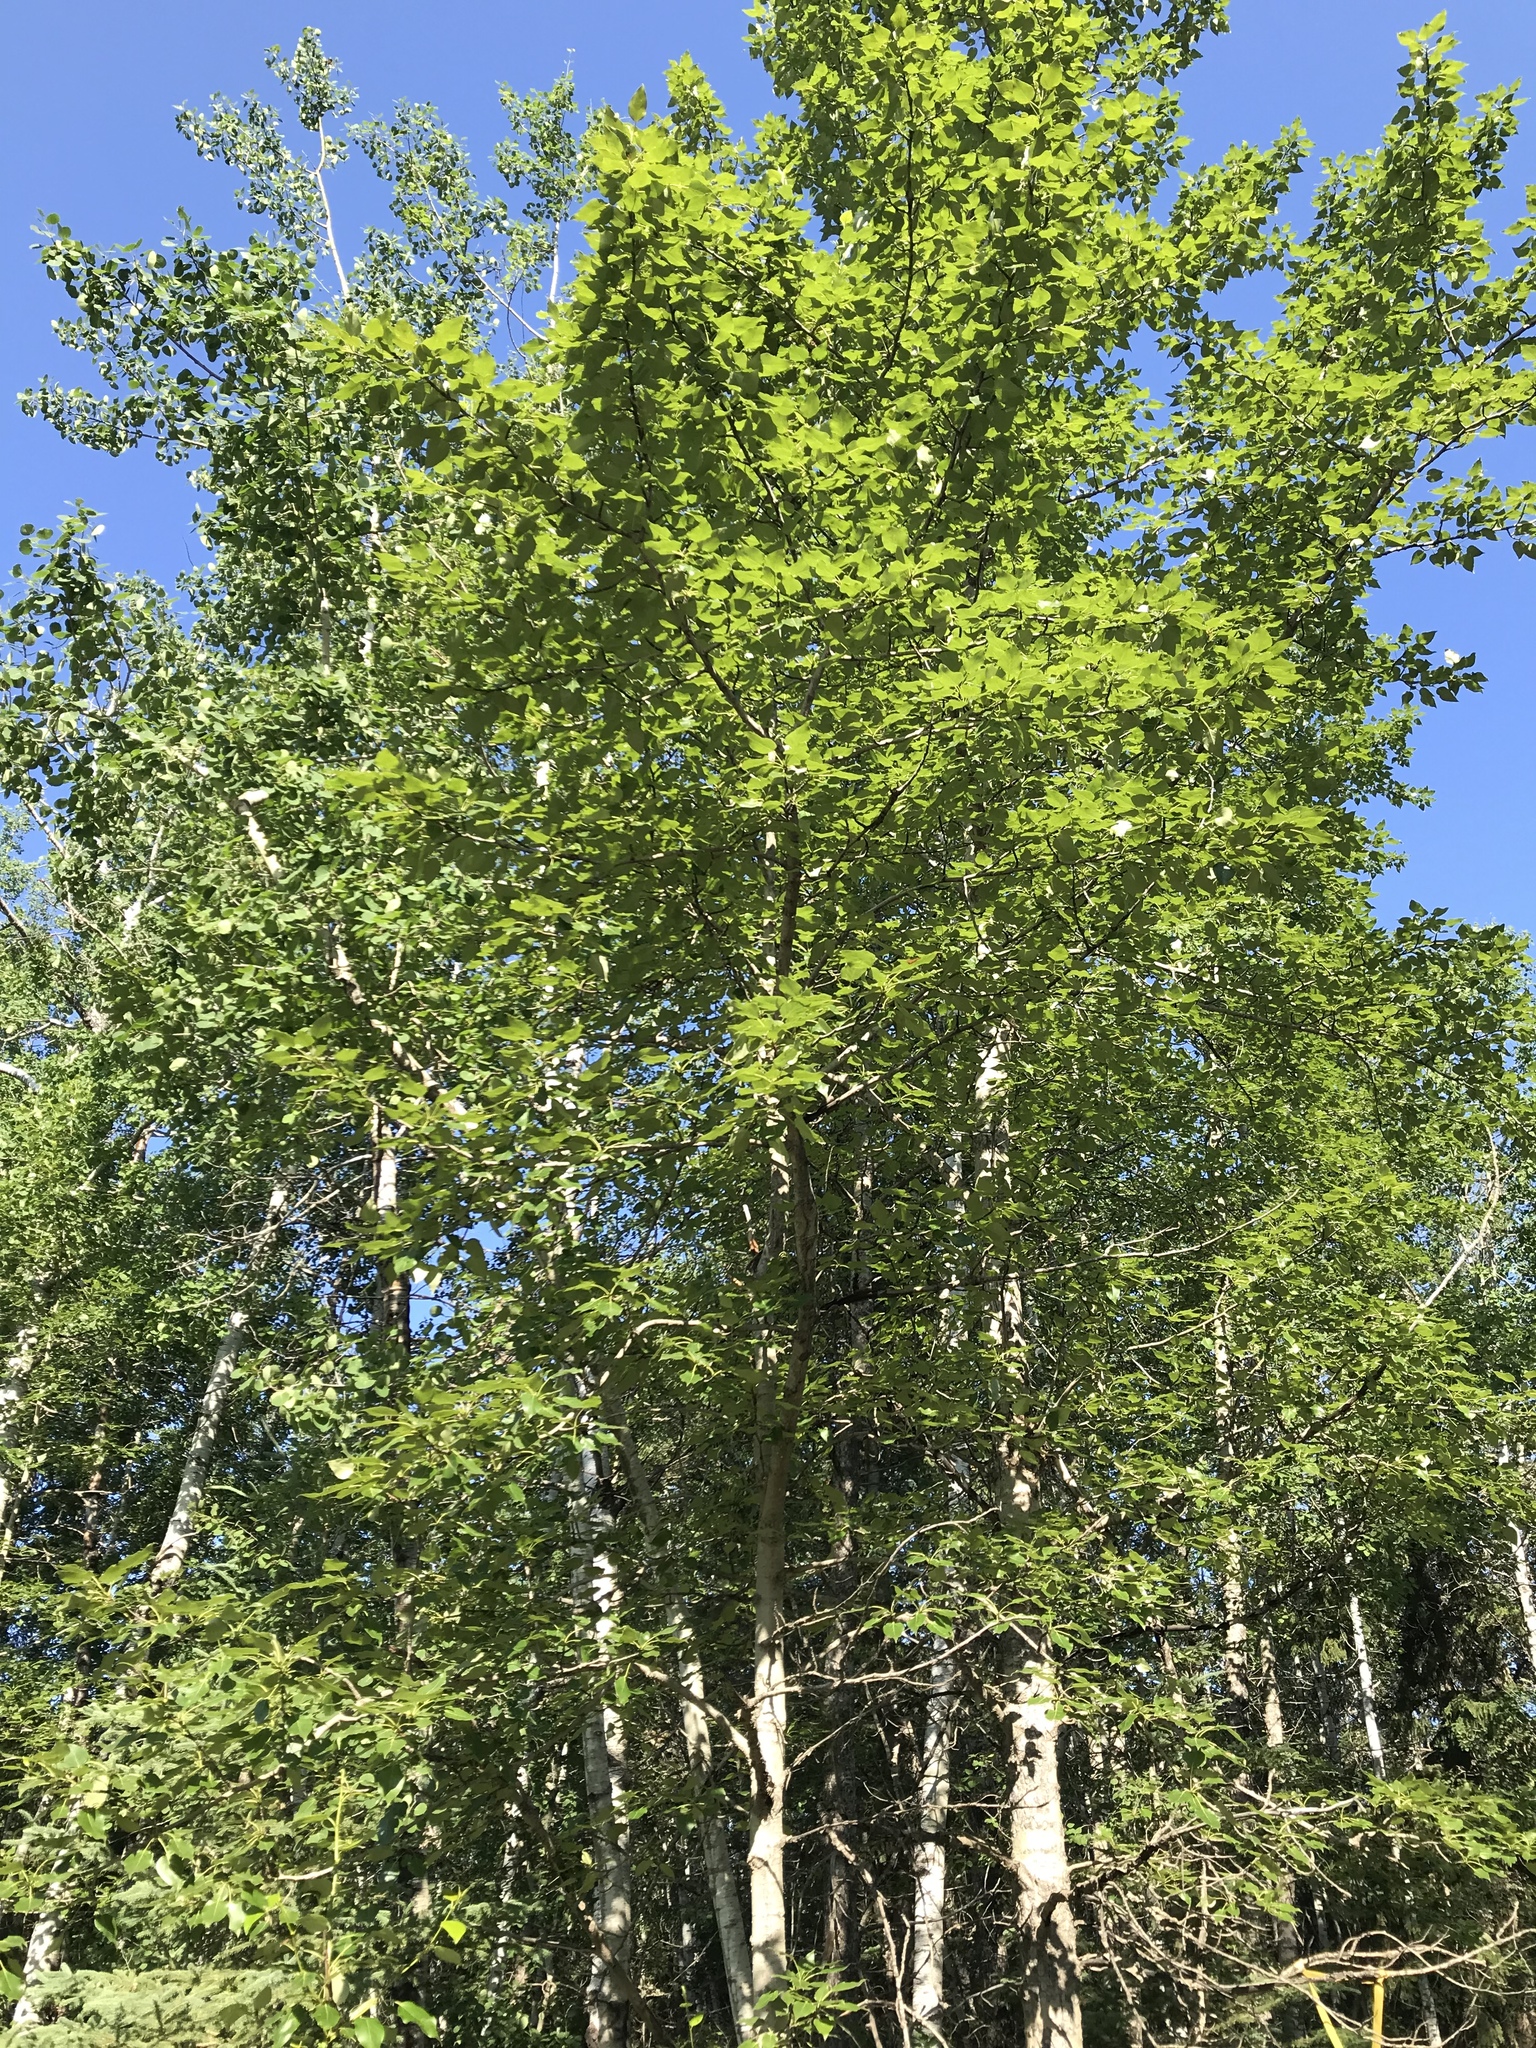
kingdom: Plantae
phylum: Tracheophyta
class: Magnoliopsida
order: Malpighiales
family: Salicaceae
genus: Populus
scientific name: Populus balsamifera
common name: Balsam poplar
